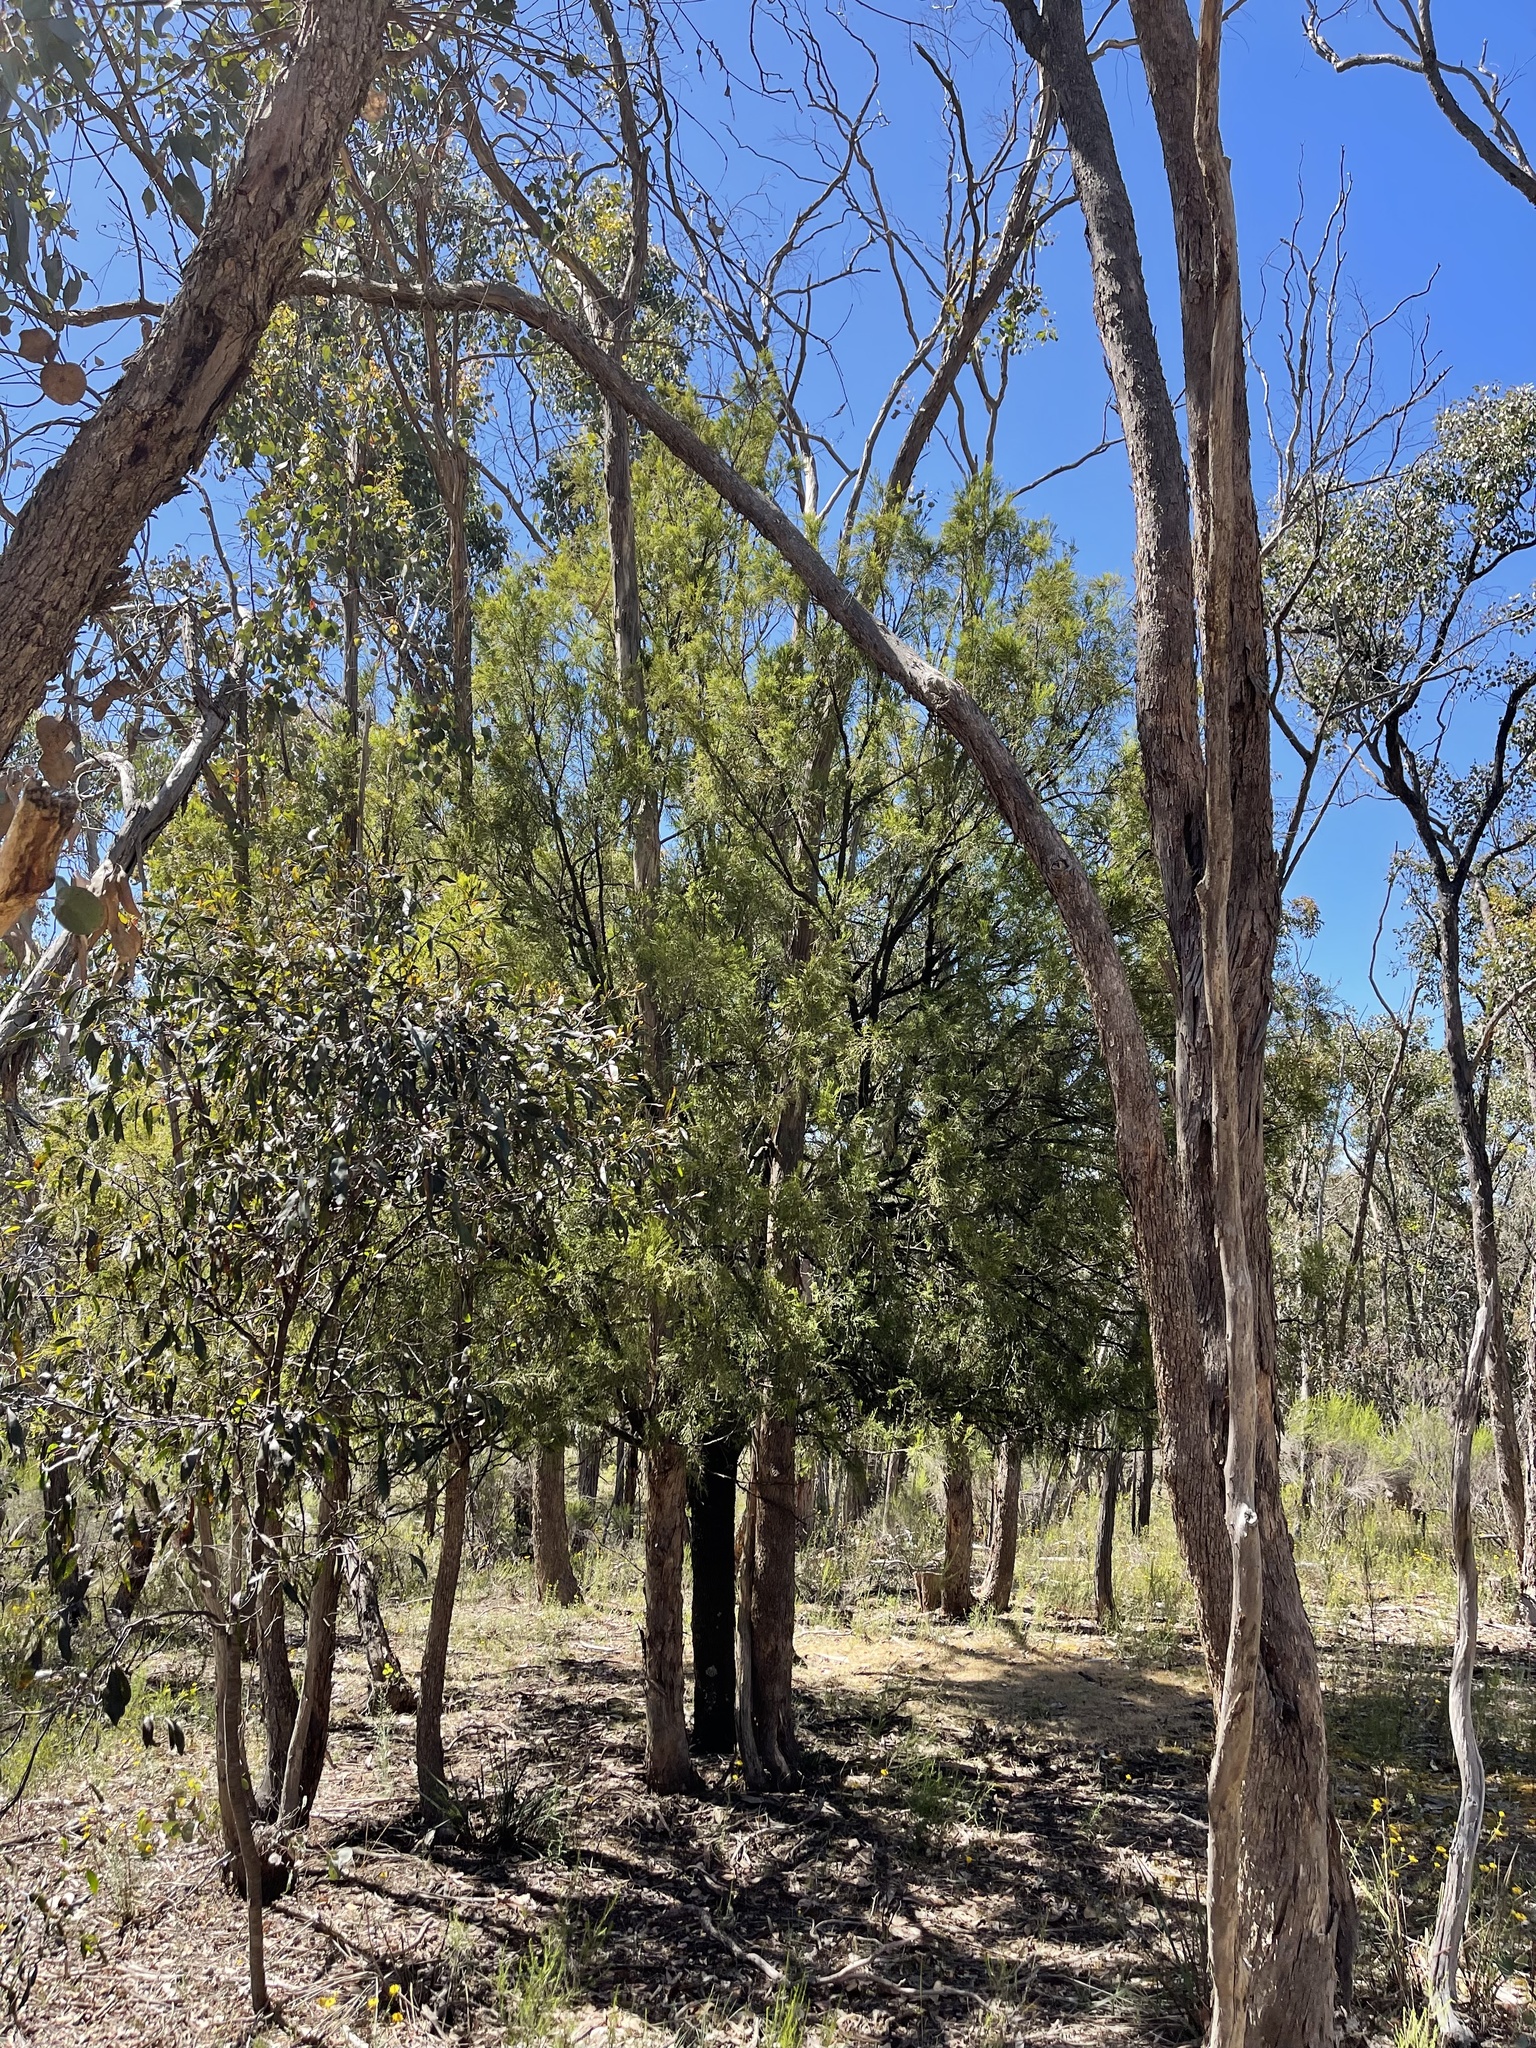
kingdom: Plantae
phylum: Tracheophyta
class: Magnoliopsida
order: Santalales
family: Santalaceae
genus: Exocarpos
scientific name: Exocarpos cupressiformis
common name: Cherry ballart
